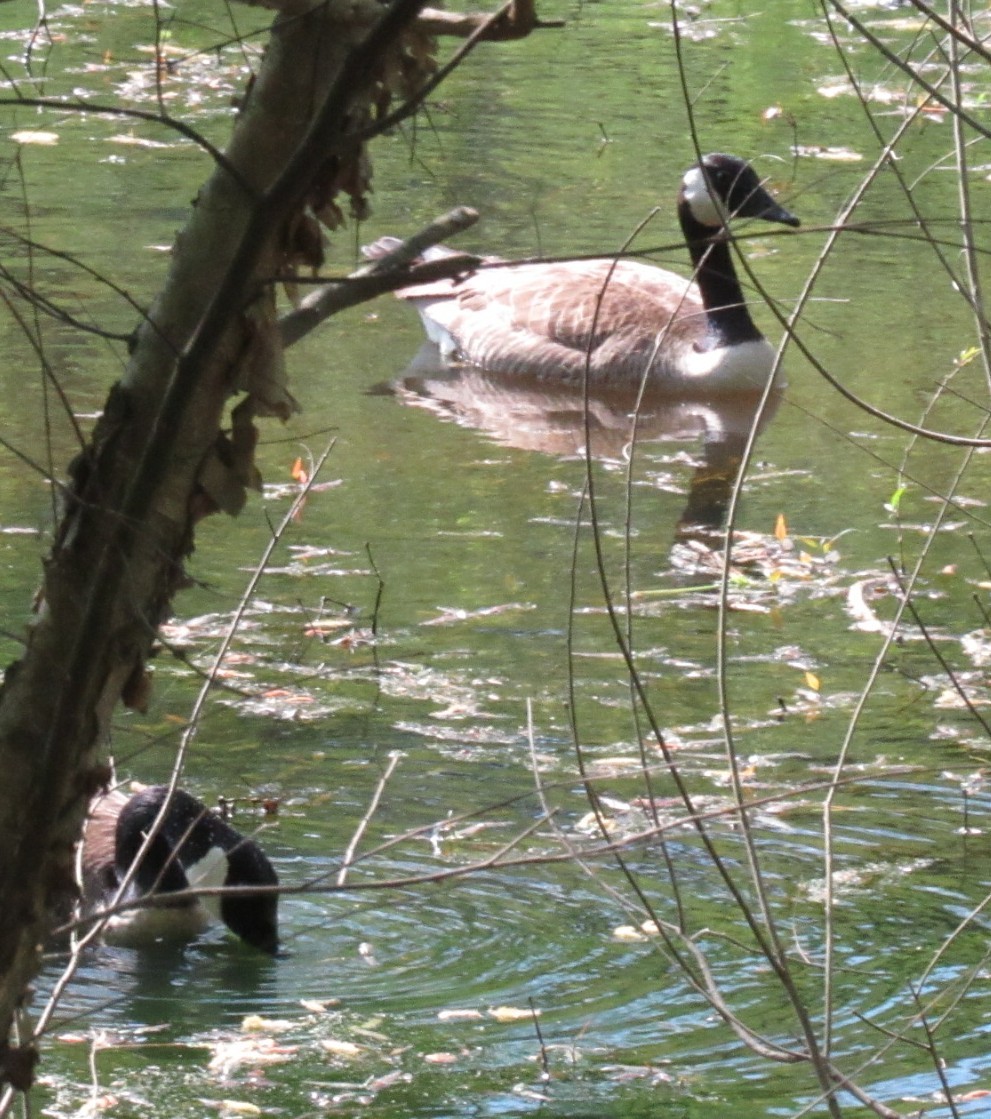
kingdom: Animalia
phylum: Chordata
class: Aves
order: Anseriformes
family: Anatidae
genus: Branta
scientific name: Branta canadensis
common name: Canada goose
